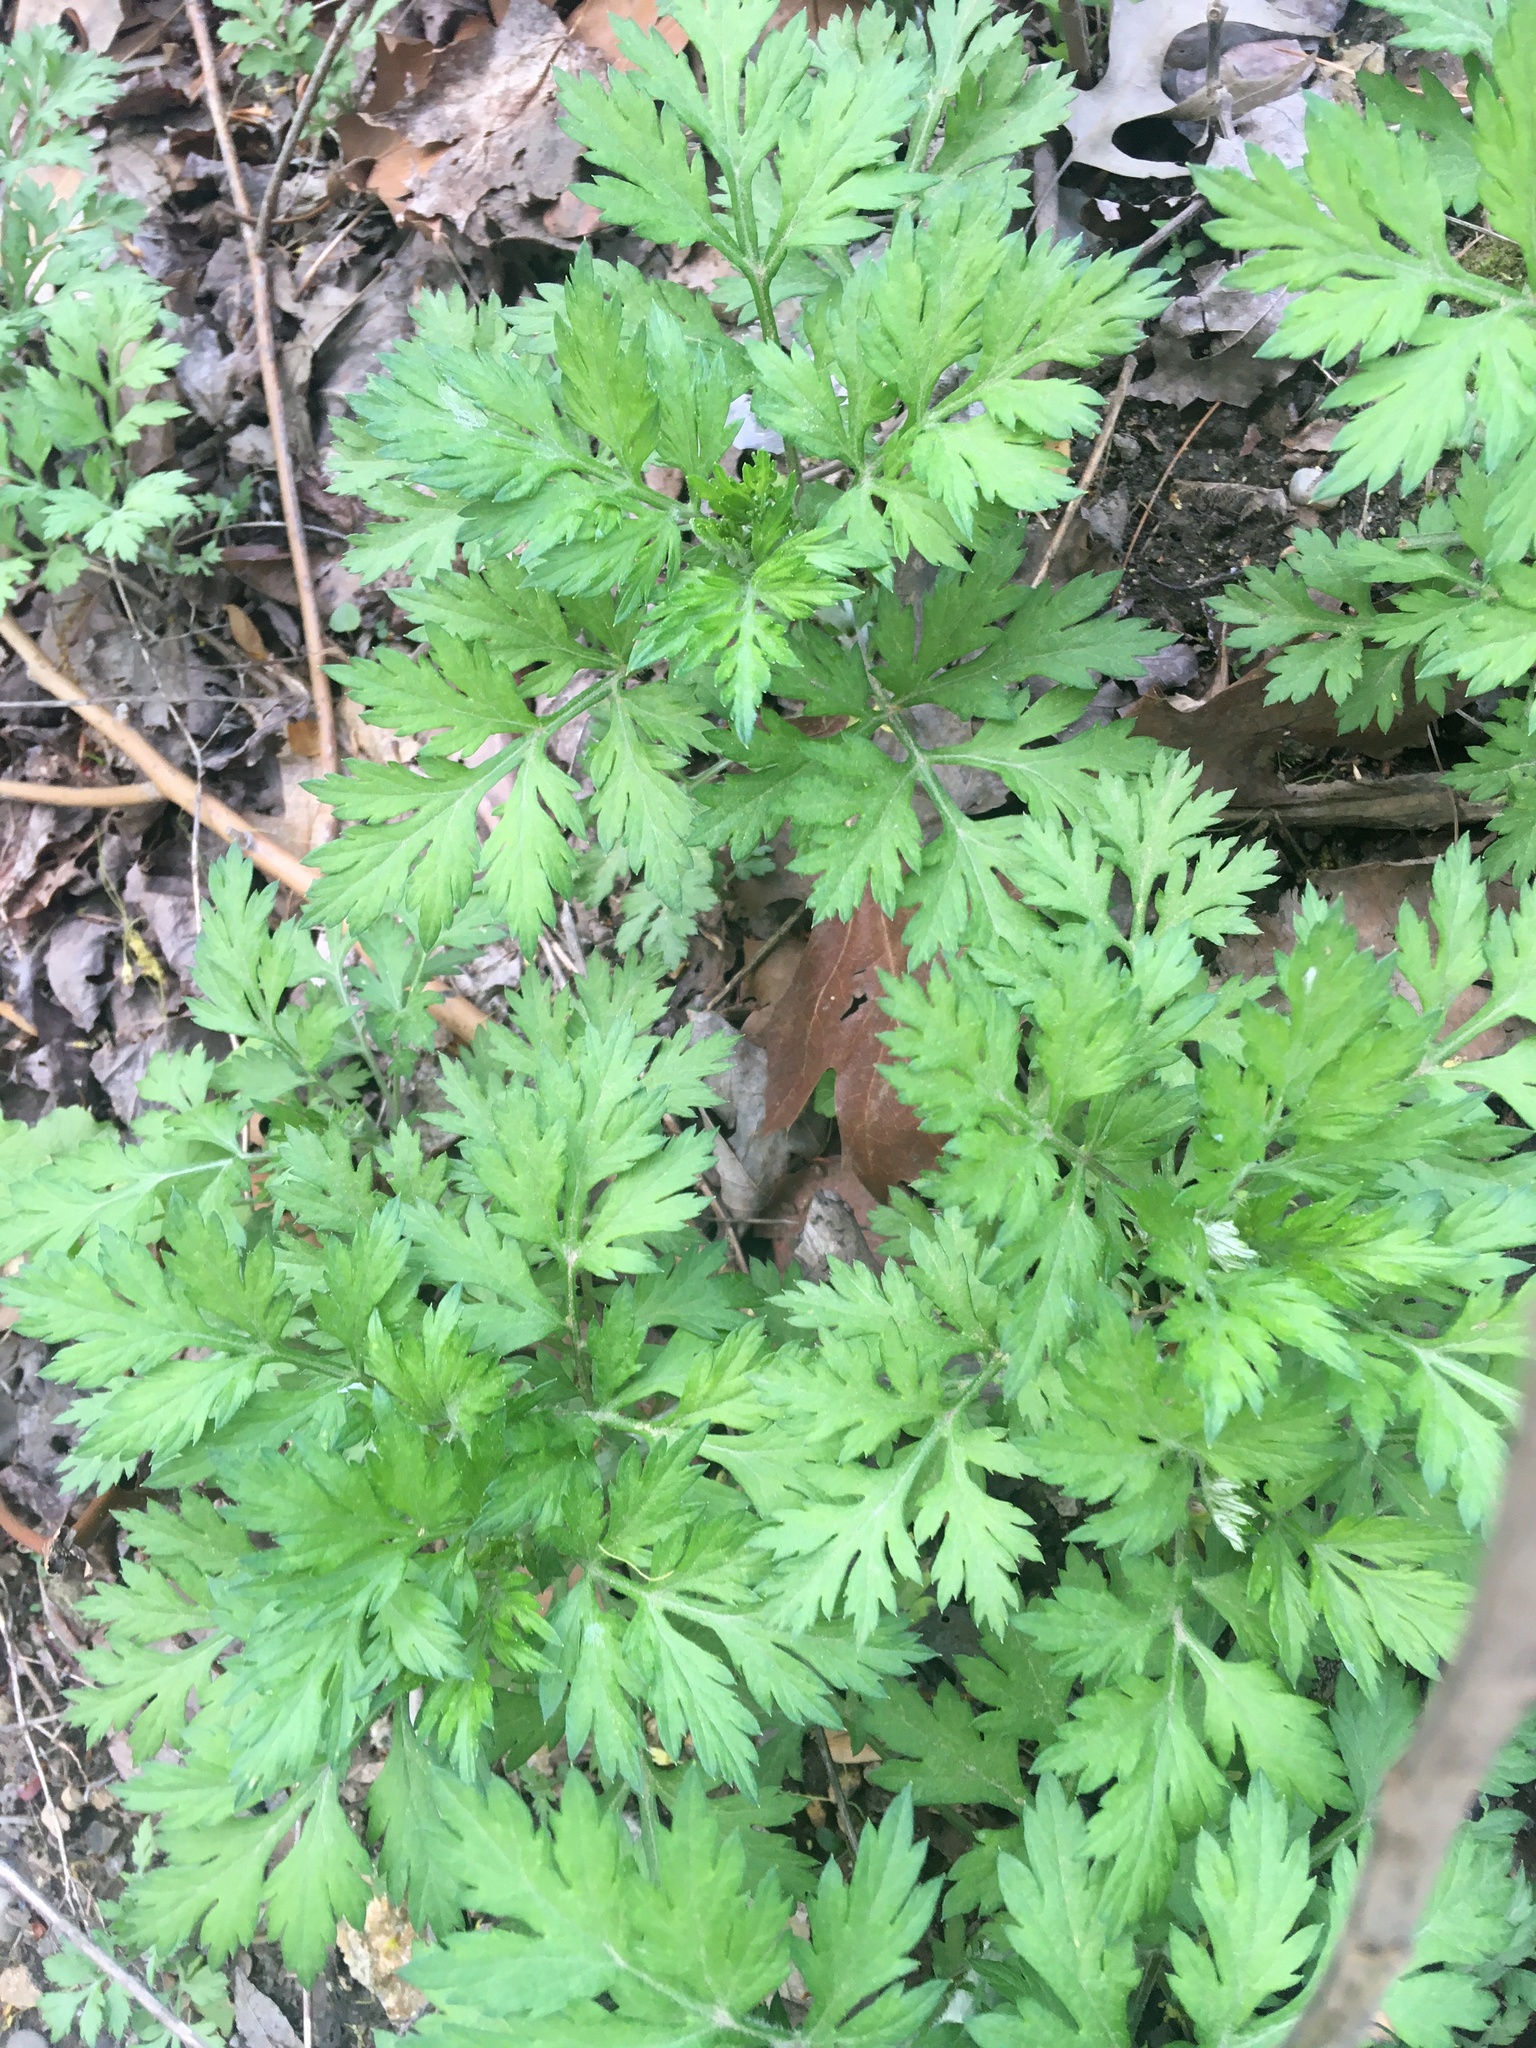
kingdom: Plantae
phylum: Tracheophyta
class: Magnoliopsida
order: Asterales
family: Asteraceae
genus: Artemisia
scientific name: Artemisia vulgaris
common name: Mugwort
